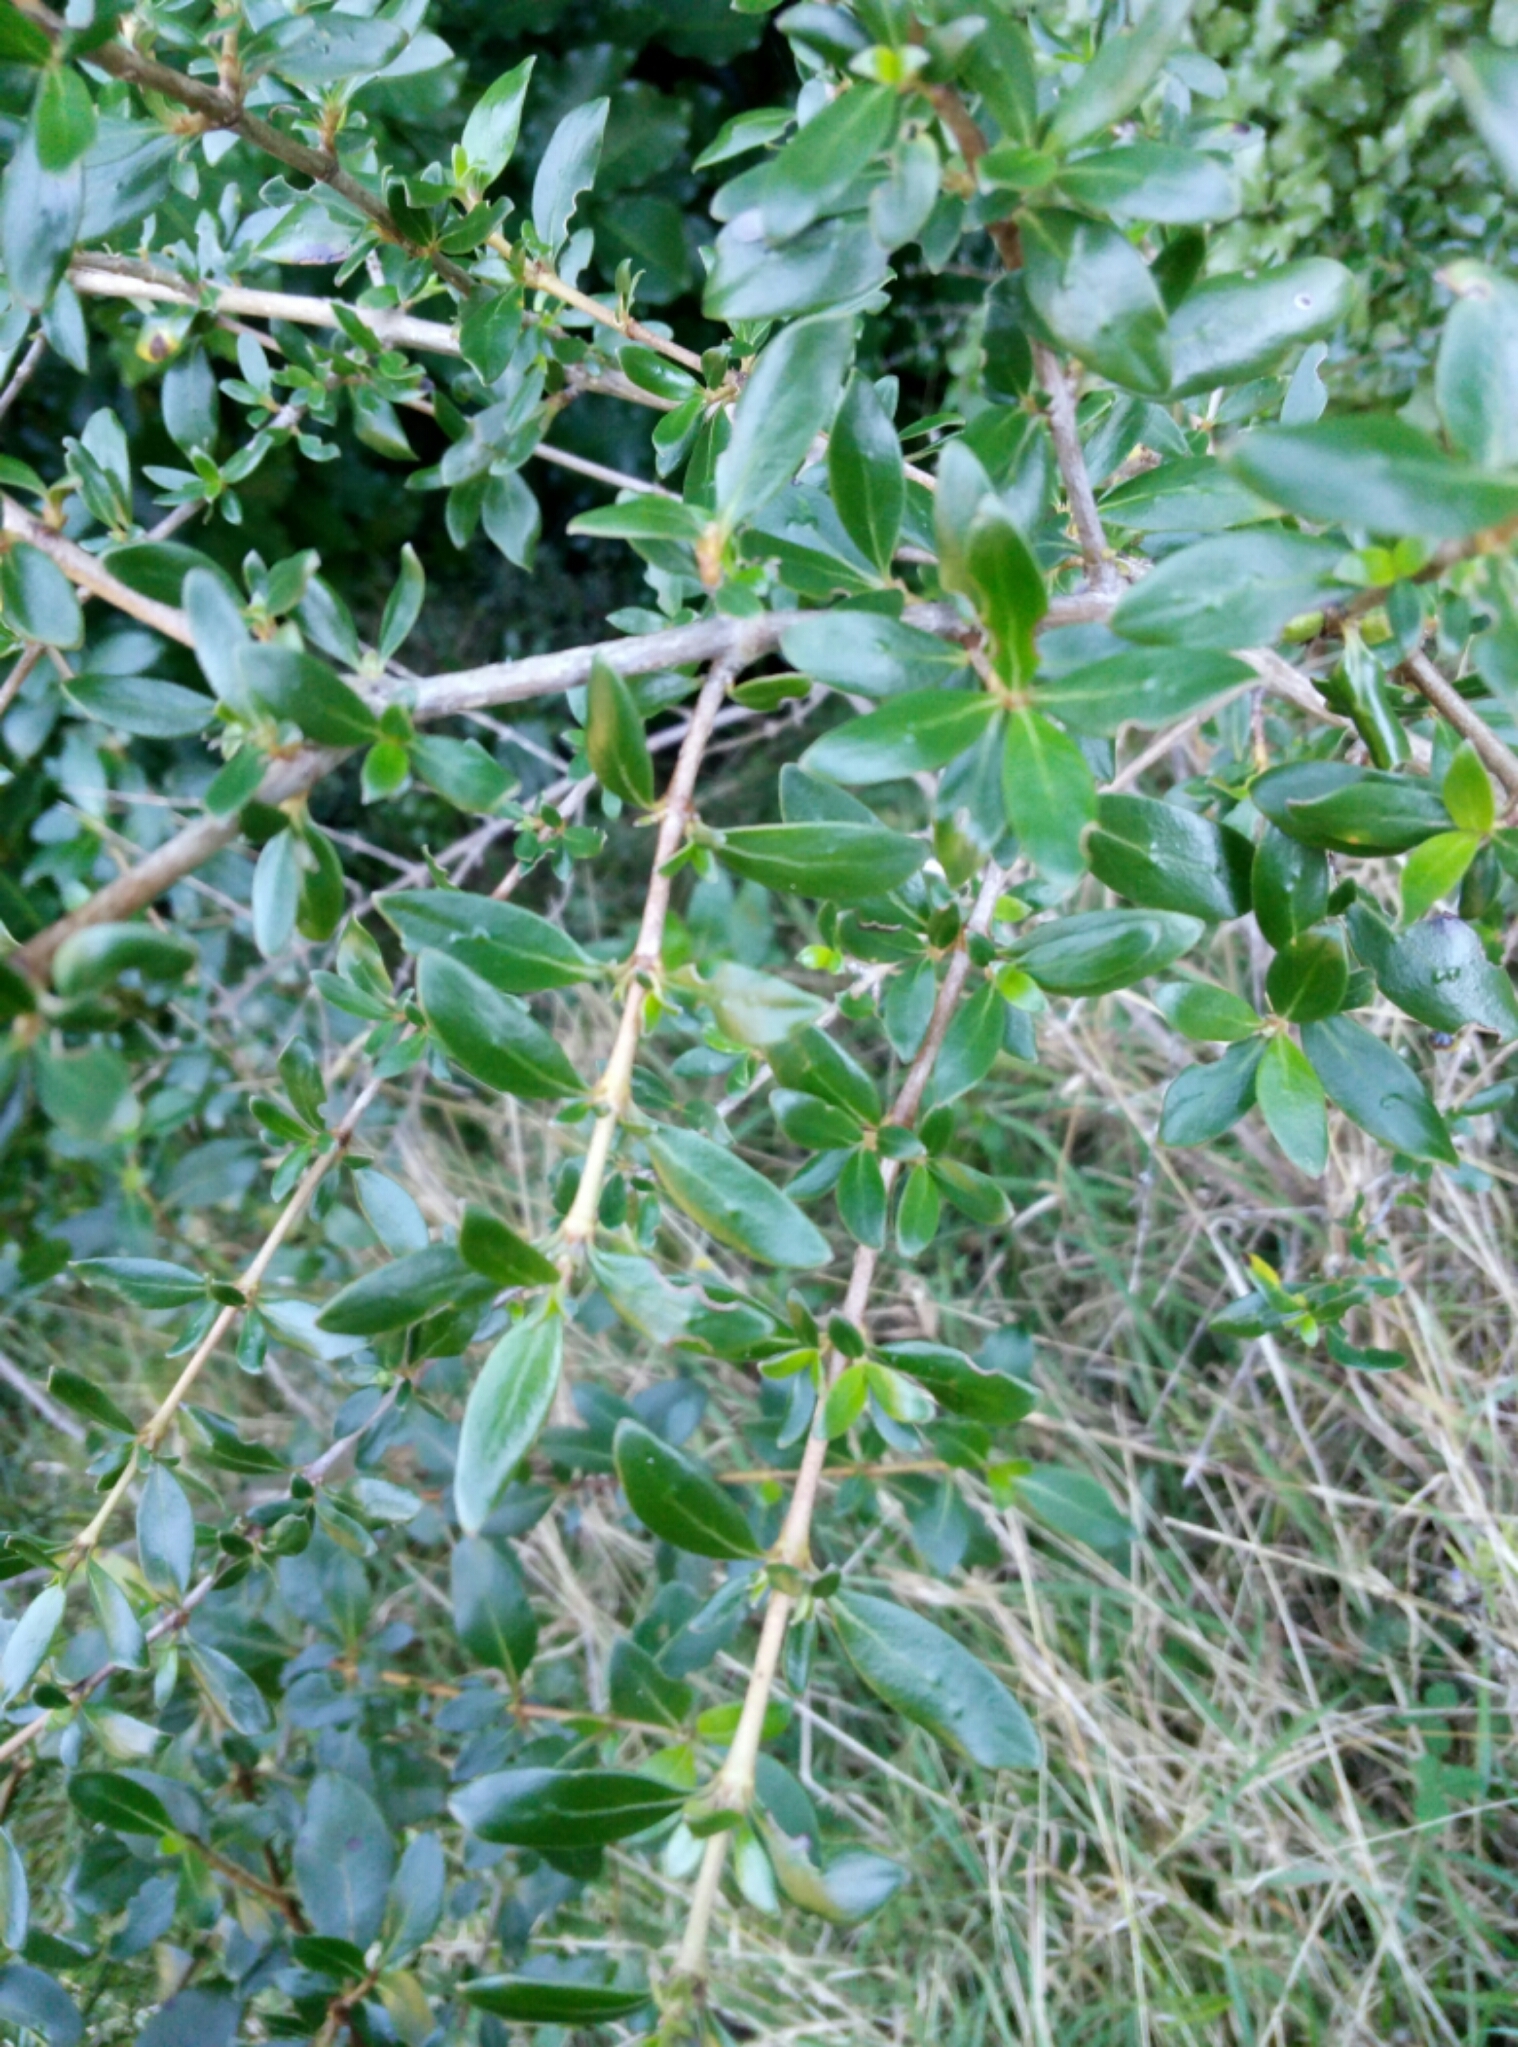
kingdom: Plantae
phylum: Tracheophyta
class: Magnoliopsida
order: Gentianales
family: Rubiaceae
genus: Coprosma
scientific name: Coprosma cunninghamii
